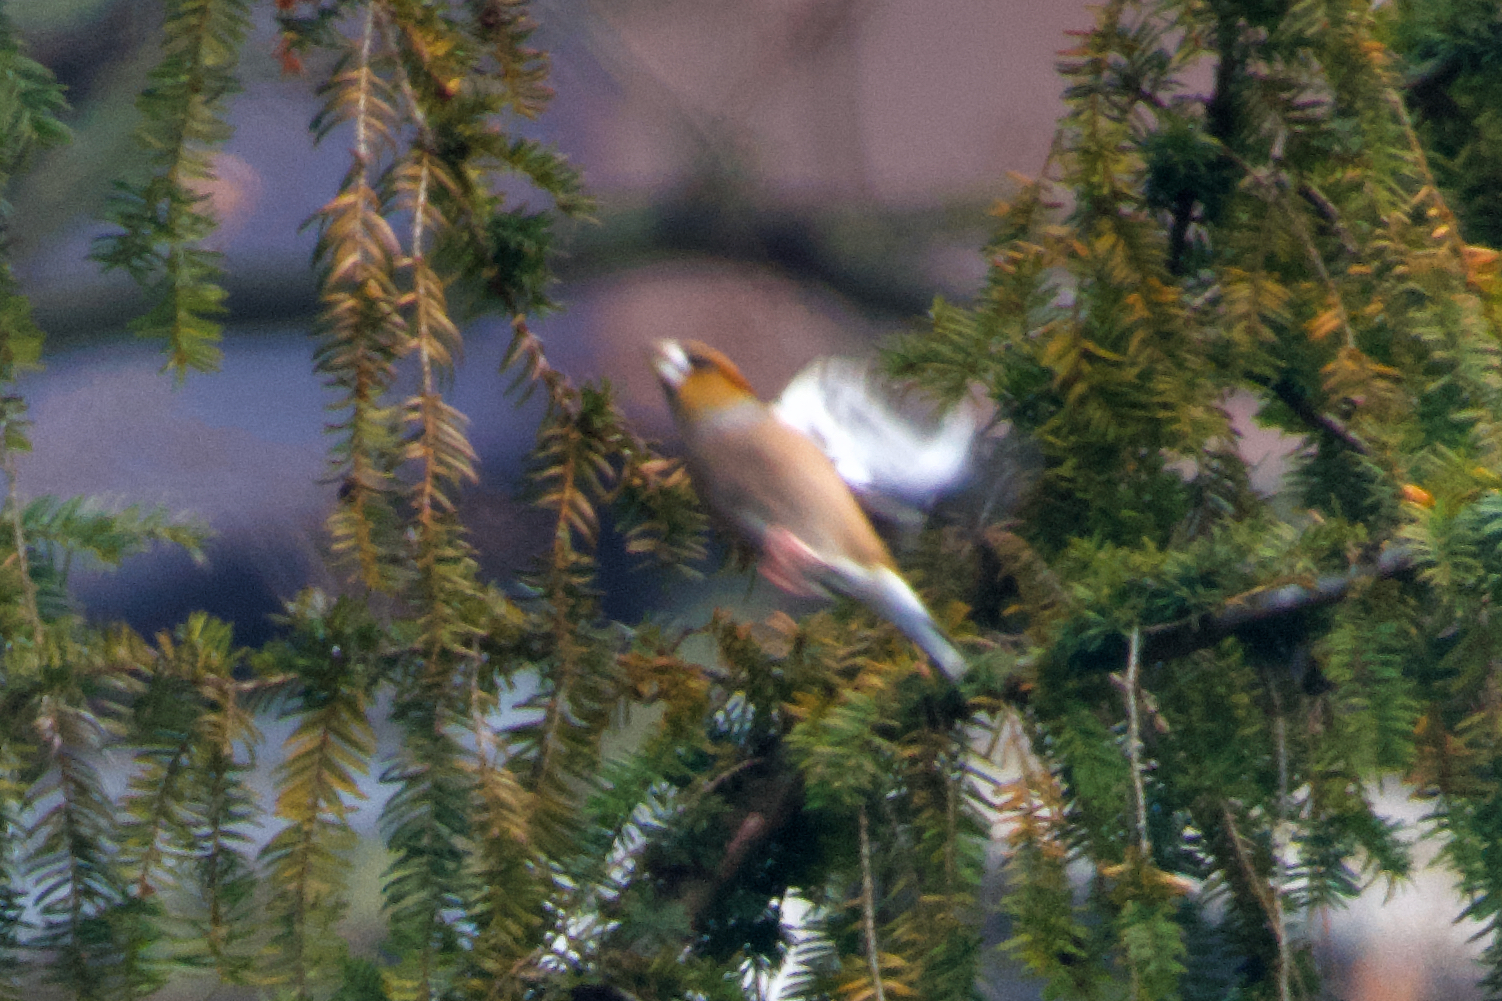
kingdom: Animalia
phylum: Chordata
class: Aves
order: Passeriformes
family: Fringillidae
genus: Coccothraustes
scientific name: Coccothraustes coccothraustes
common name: Hawfinch
